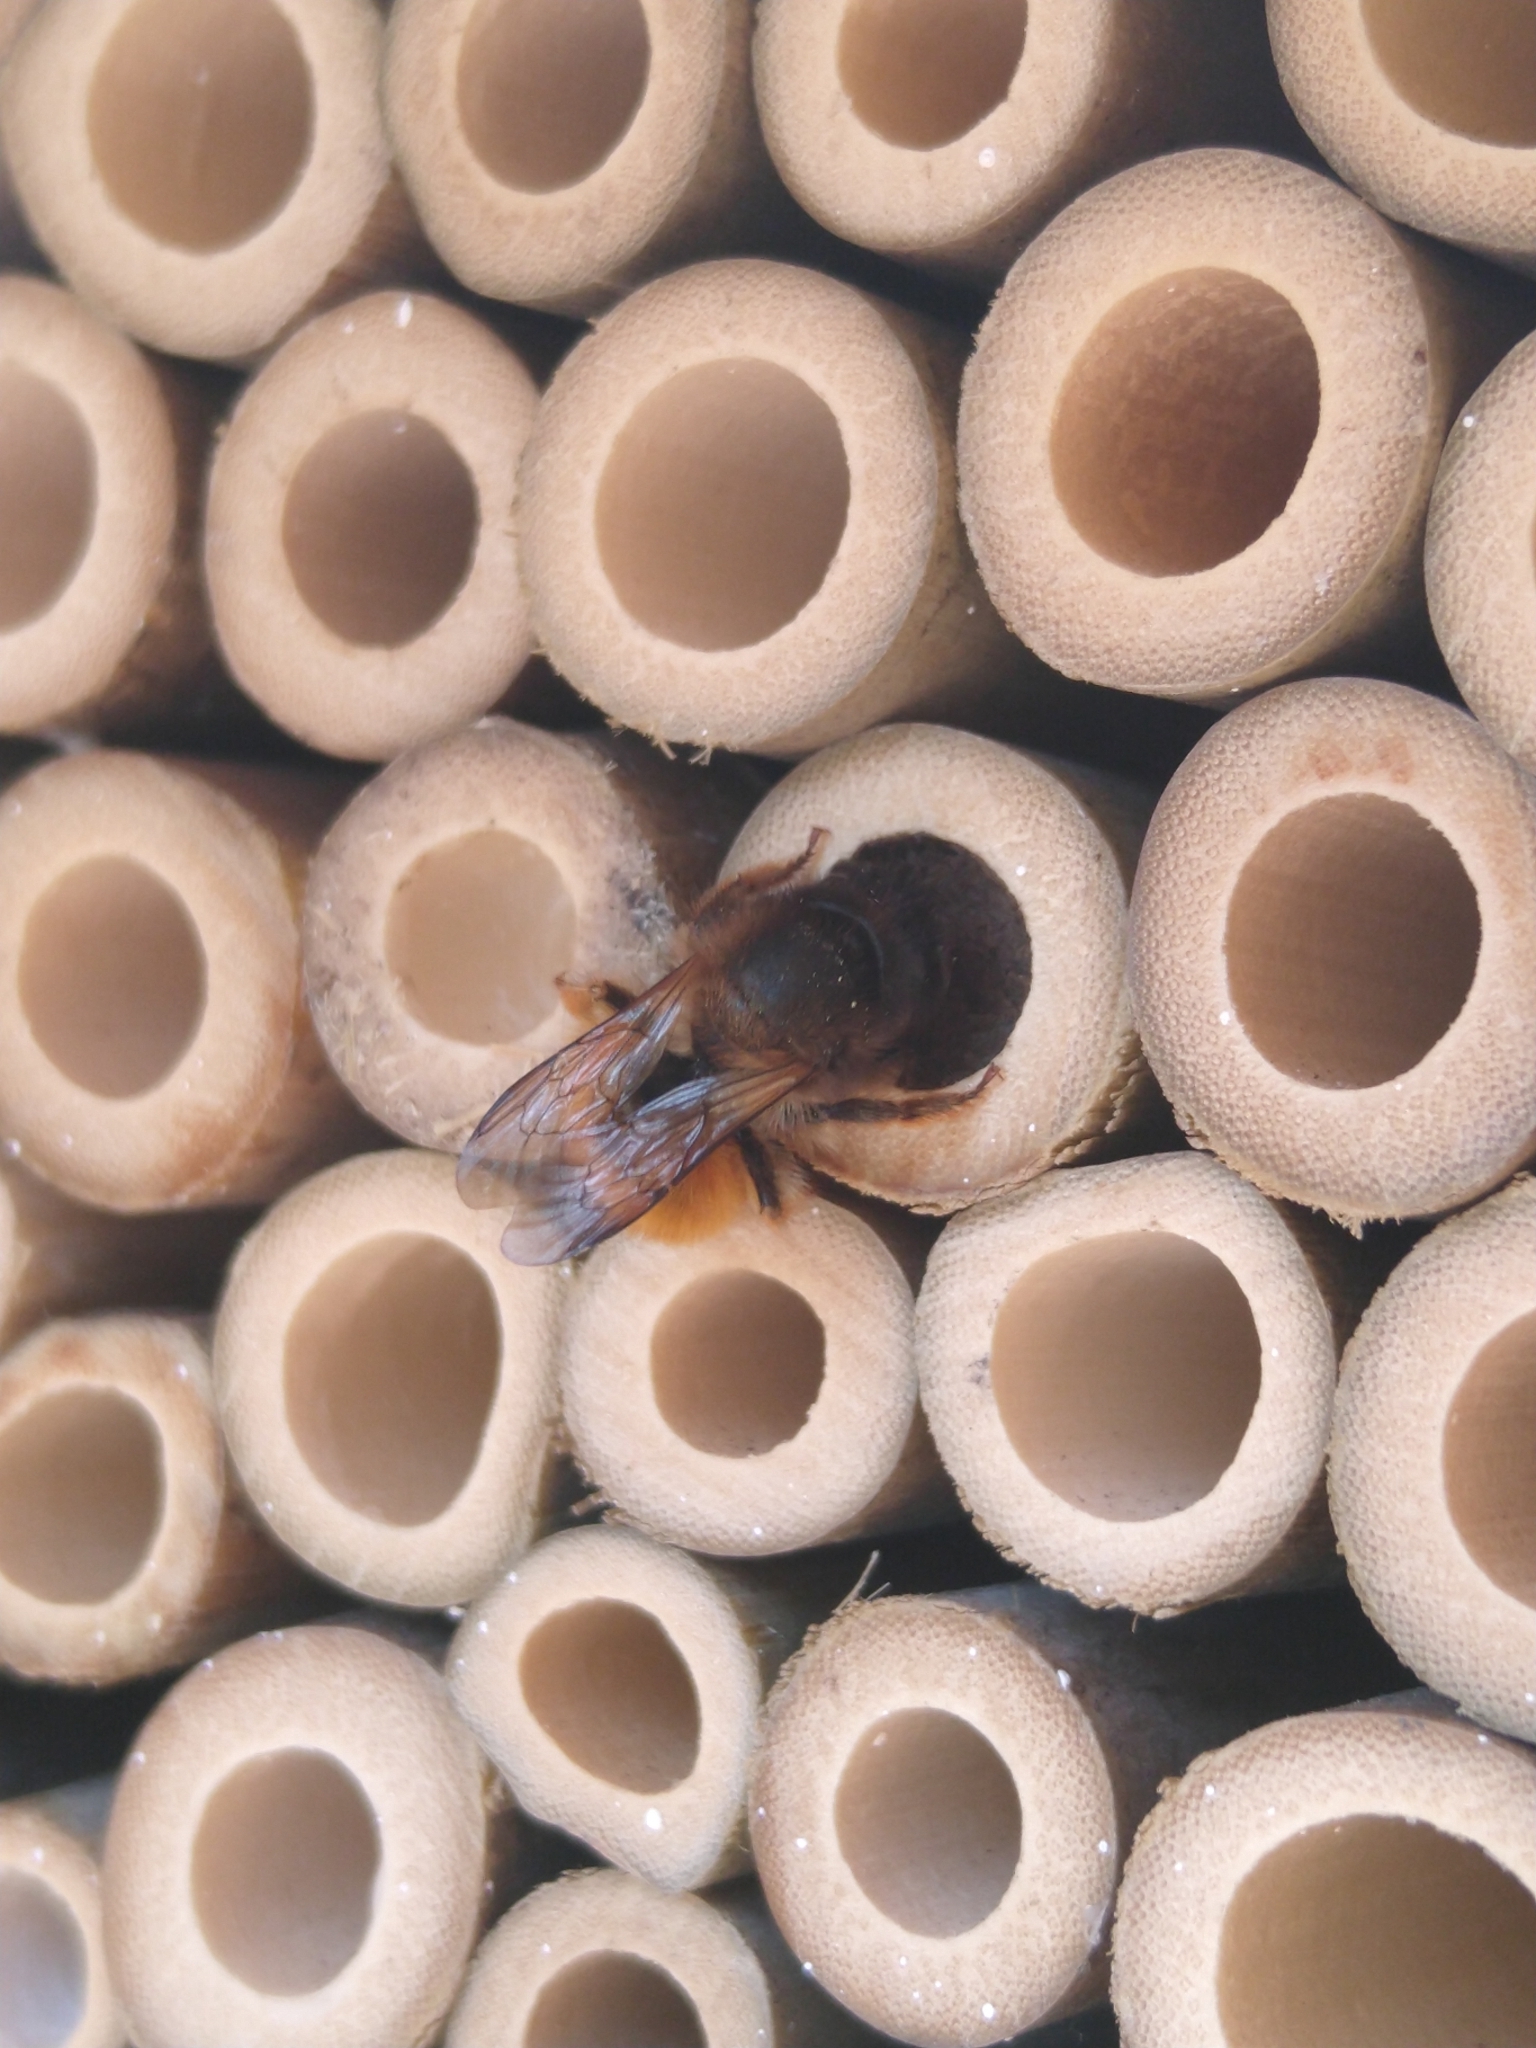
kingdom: Animalia
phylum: Arthropoda
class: Insecta
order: Hymenoptera
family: Megachilidae
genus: Osmia
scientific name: Osmia bicornis
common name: Red mason bee
